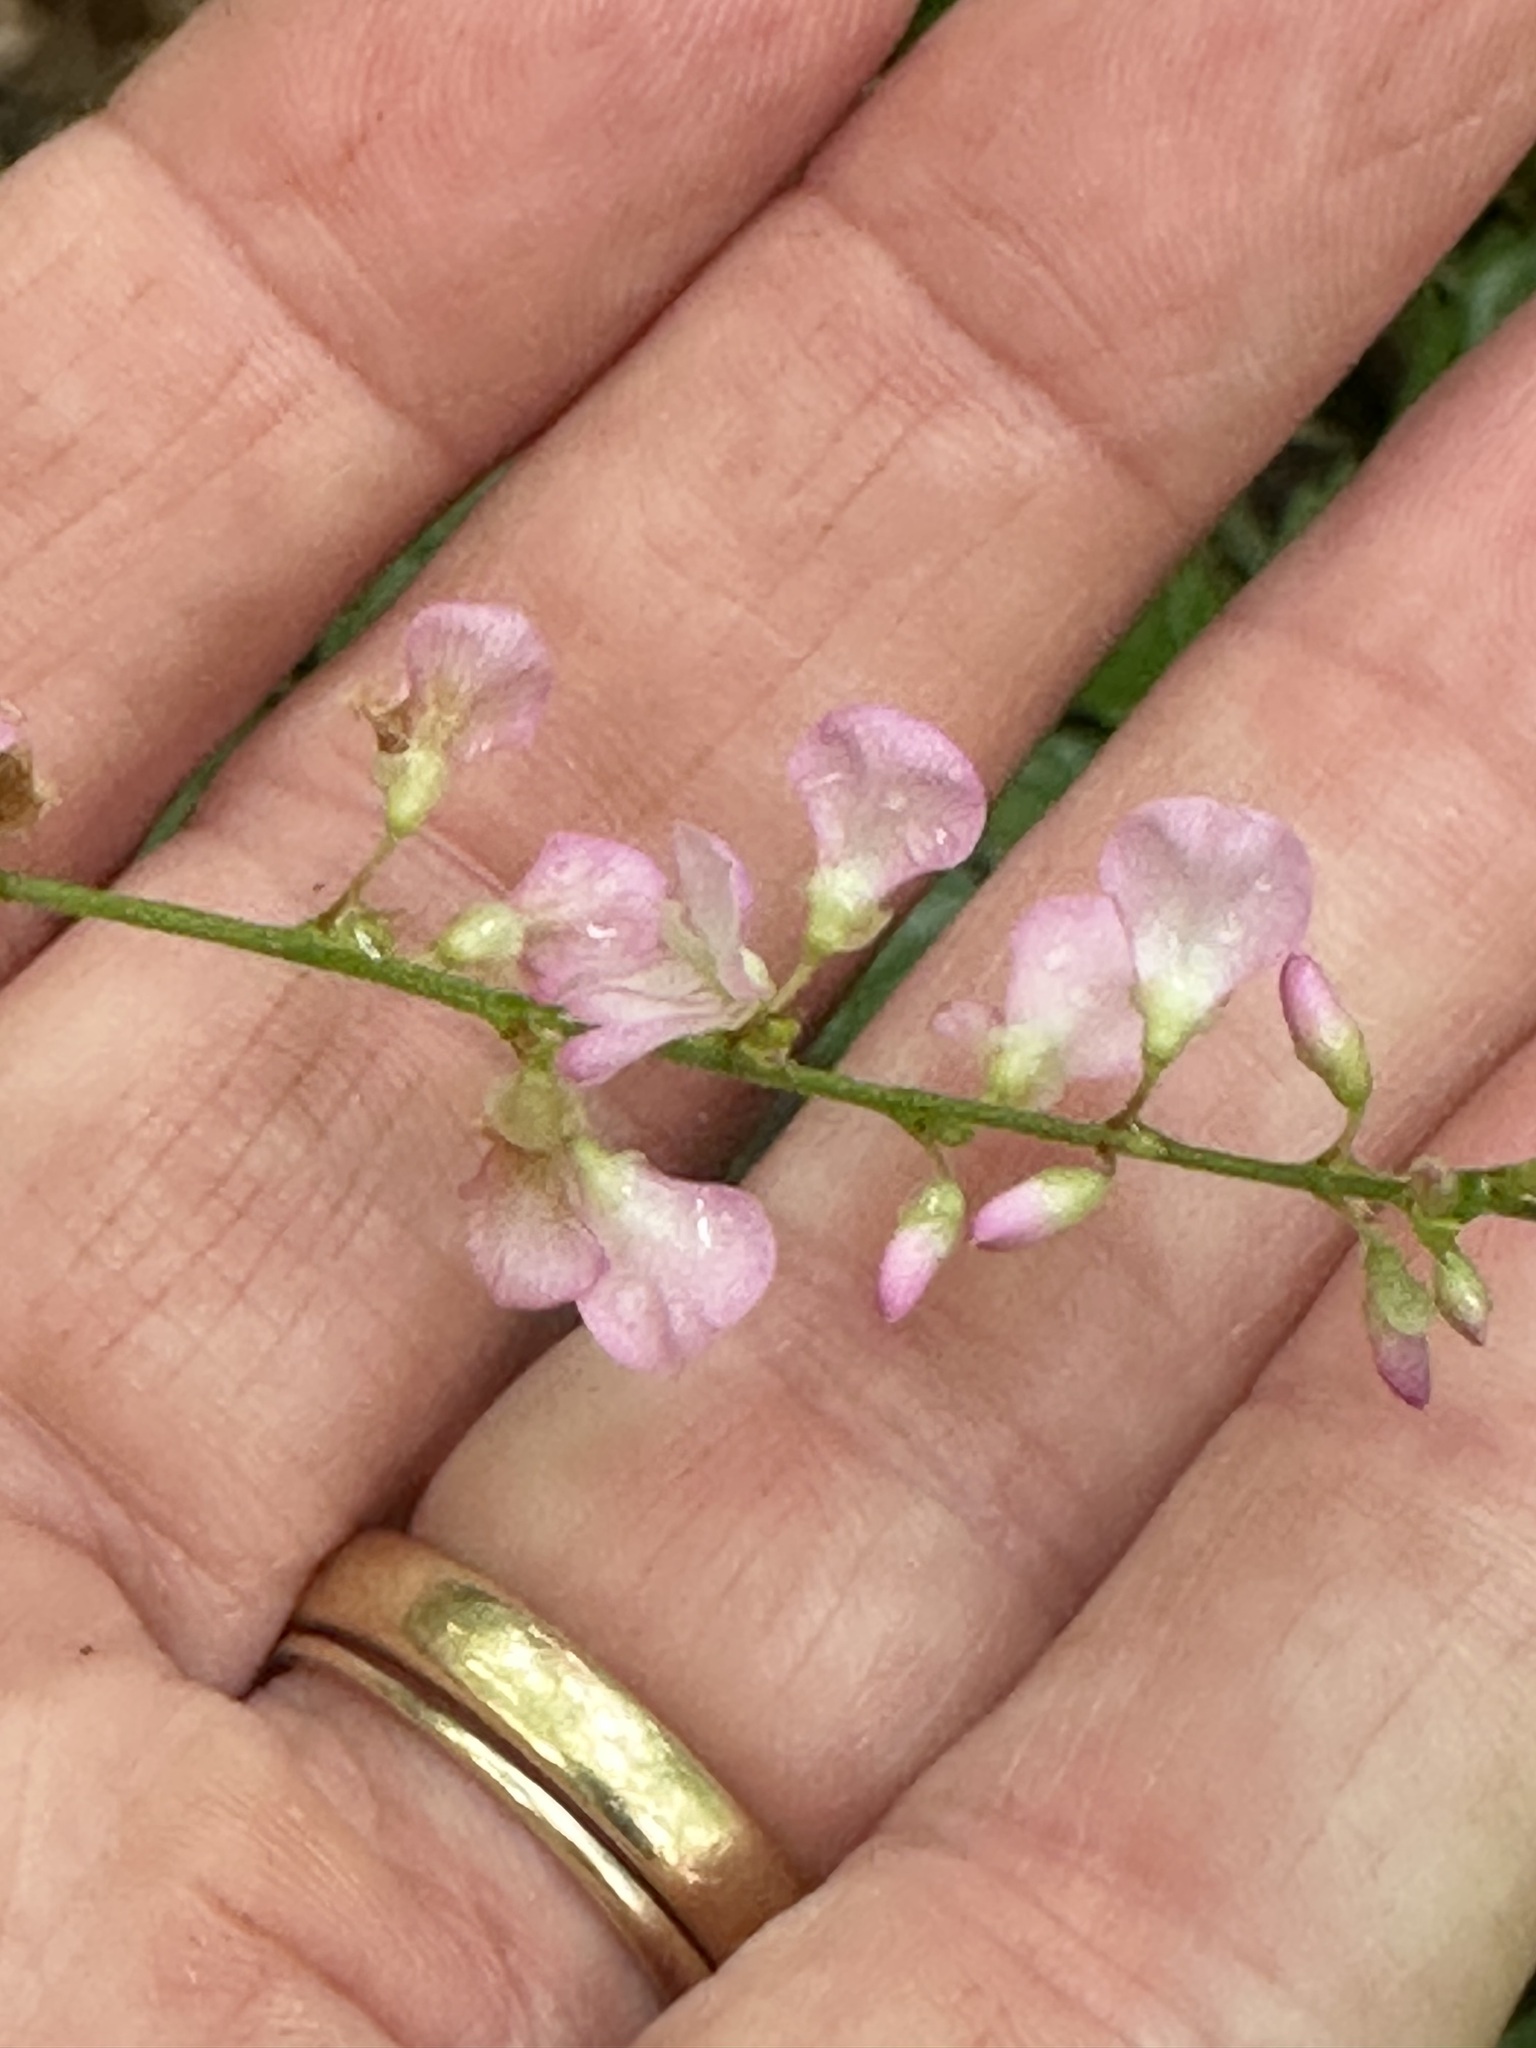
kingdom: Plantae
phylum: Tracheophyta
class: Magnoliopsida
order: Fabales
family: Fabaceae
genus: Hylodesmum
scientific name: Hylodesmum glutinosum
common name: Clustered-leaved tick-trefoil
